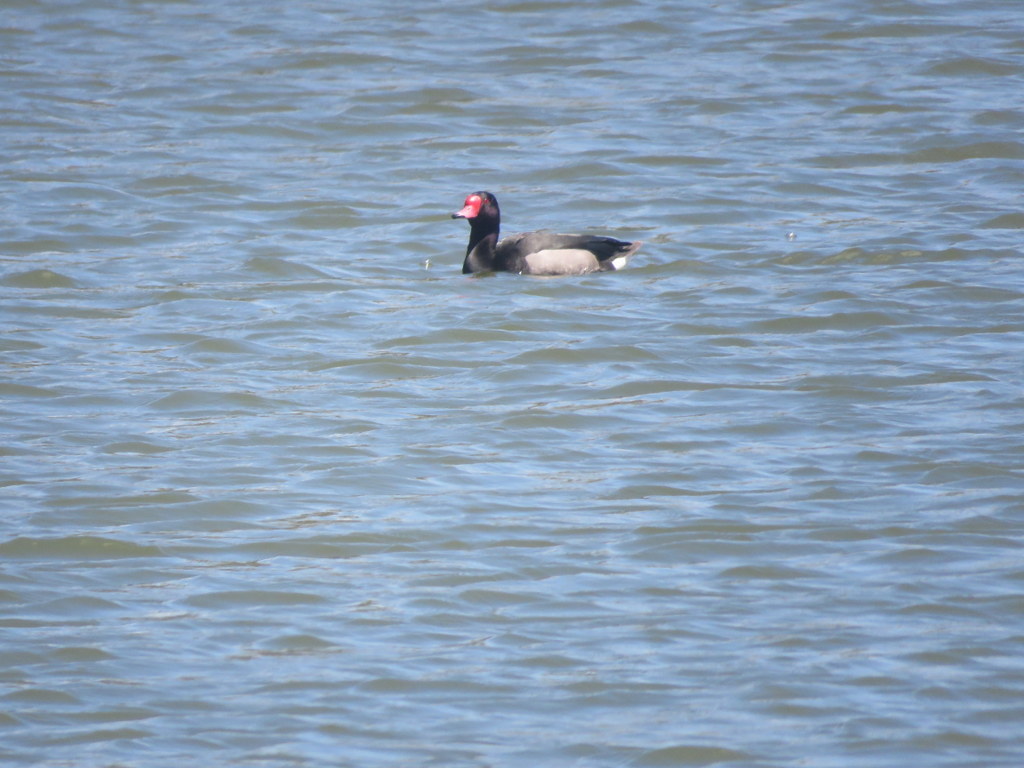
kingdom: Animalia
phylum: Chordata
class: Aves
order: Anseriformes
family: Anatidae
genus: Netta
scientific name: Netta peposaca
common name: Rosy-billed pochard
